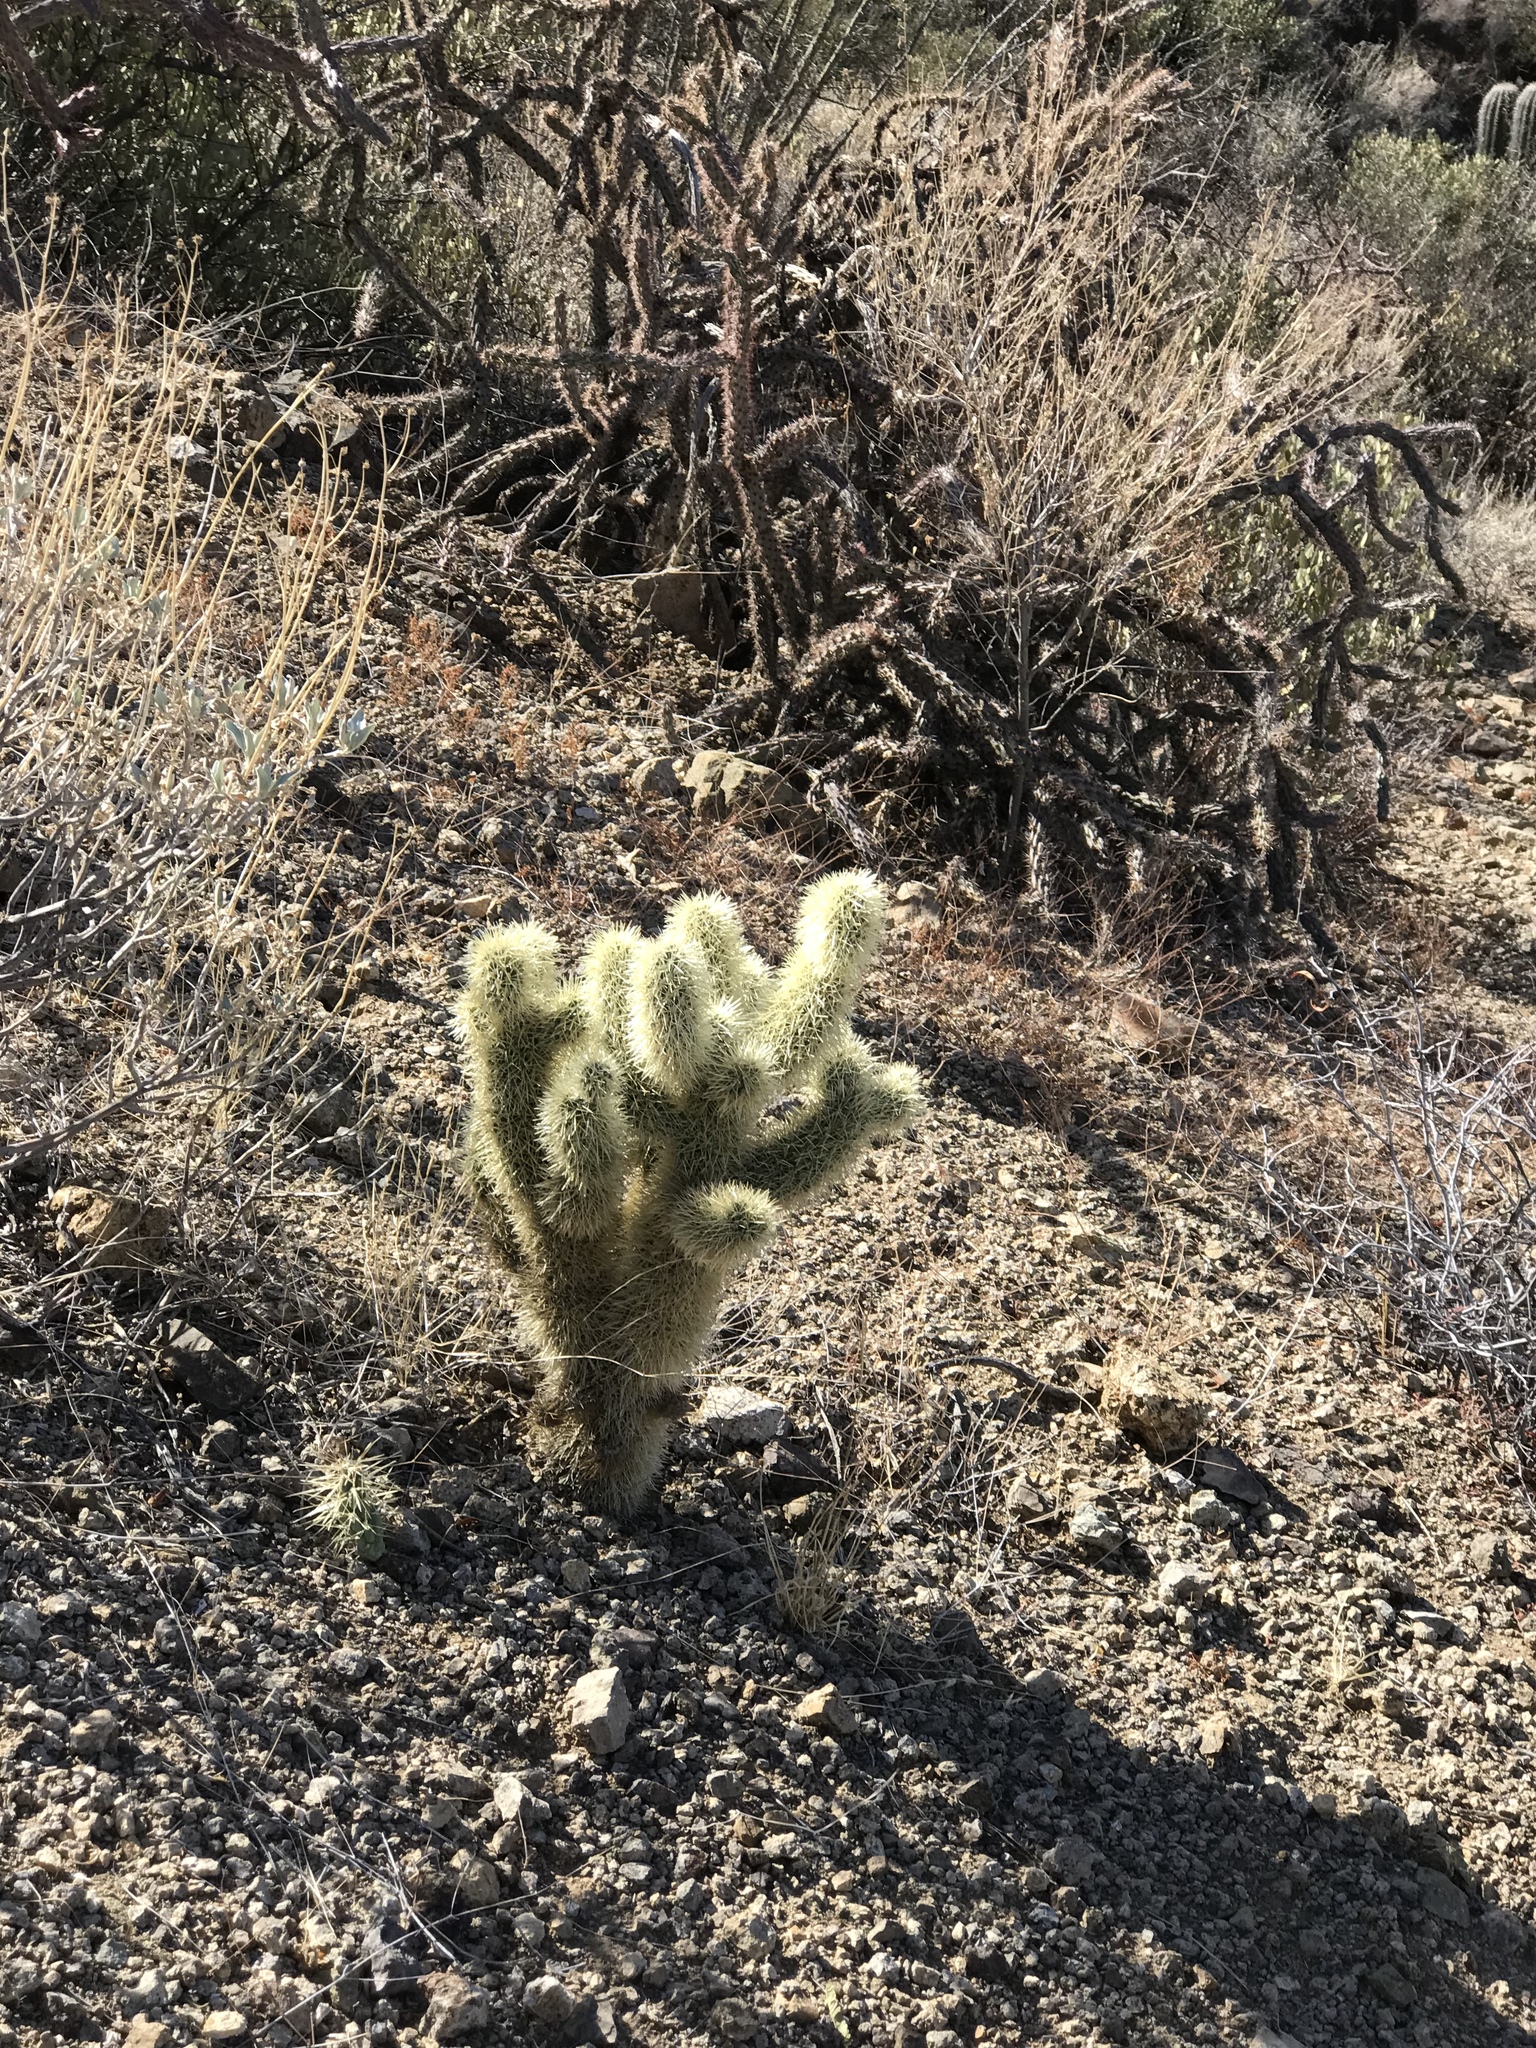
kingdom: Plantae
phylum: Tracheophyta
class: Magnoliopsida
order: Caryophyllales
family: Cactaceae
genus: Cylindropuntia
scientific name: Cylindropuntia fosbergii
